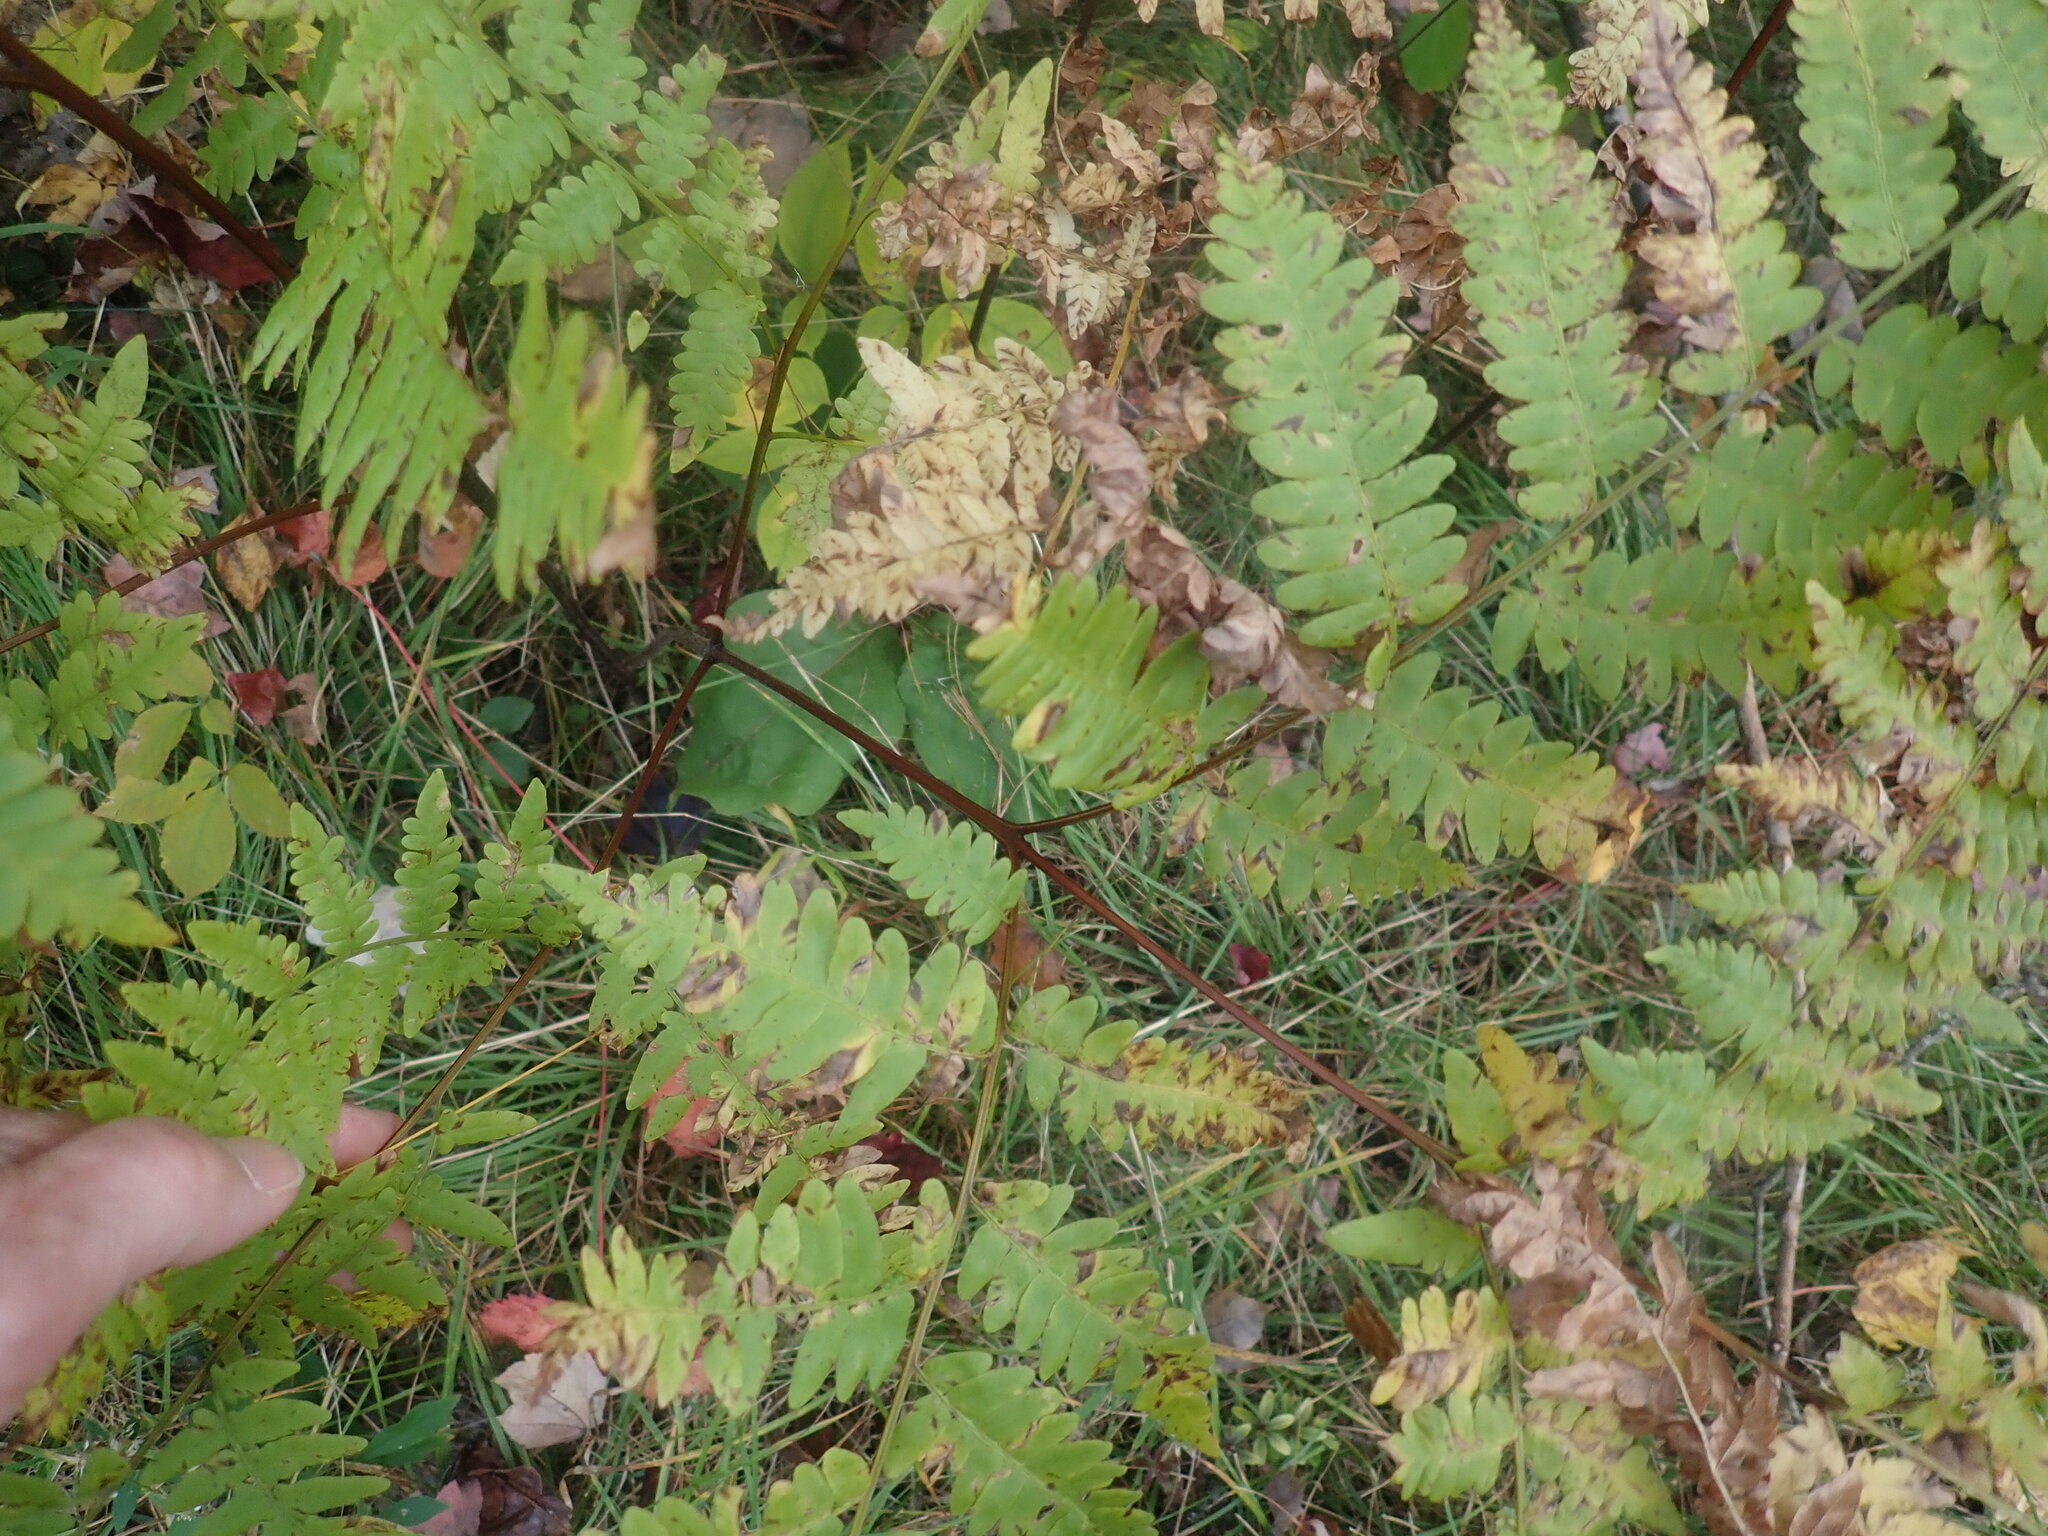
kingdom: Plantae
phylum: Tracheophyta
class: Polypodiopsida
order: Polypodiales
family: Dennstaedtiaceae
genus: Pteridium
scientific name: Pteridium aquilinum
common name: Bracken
